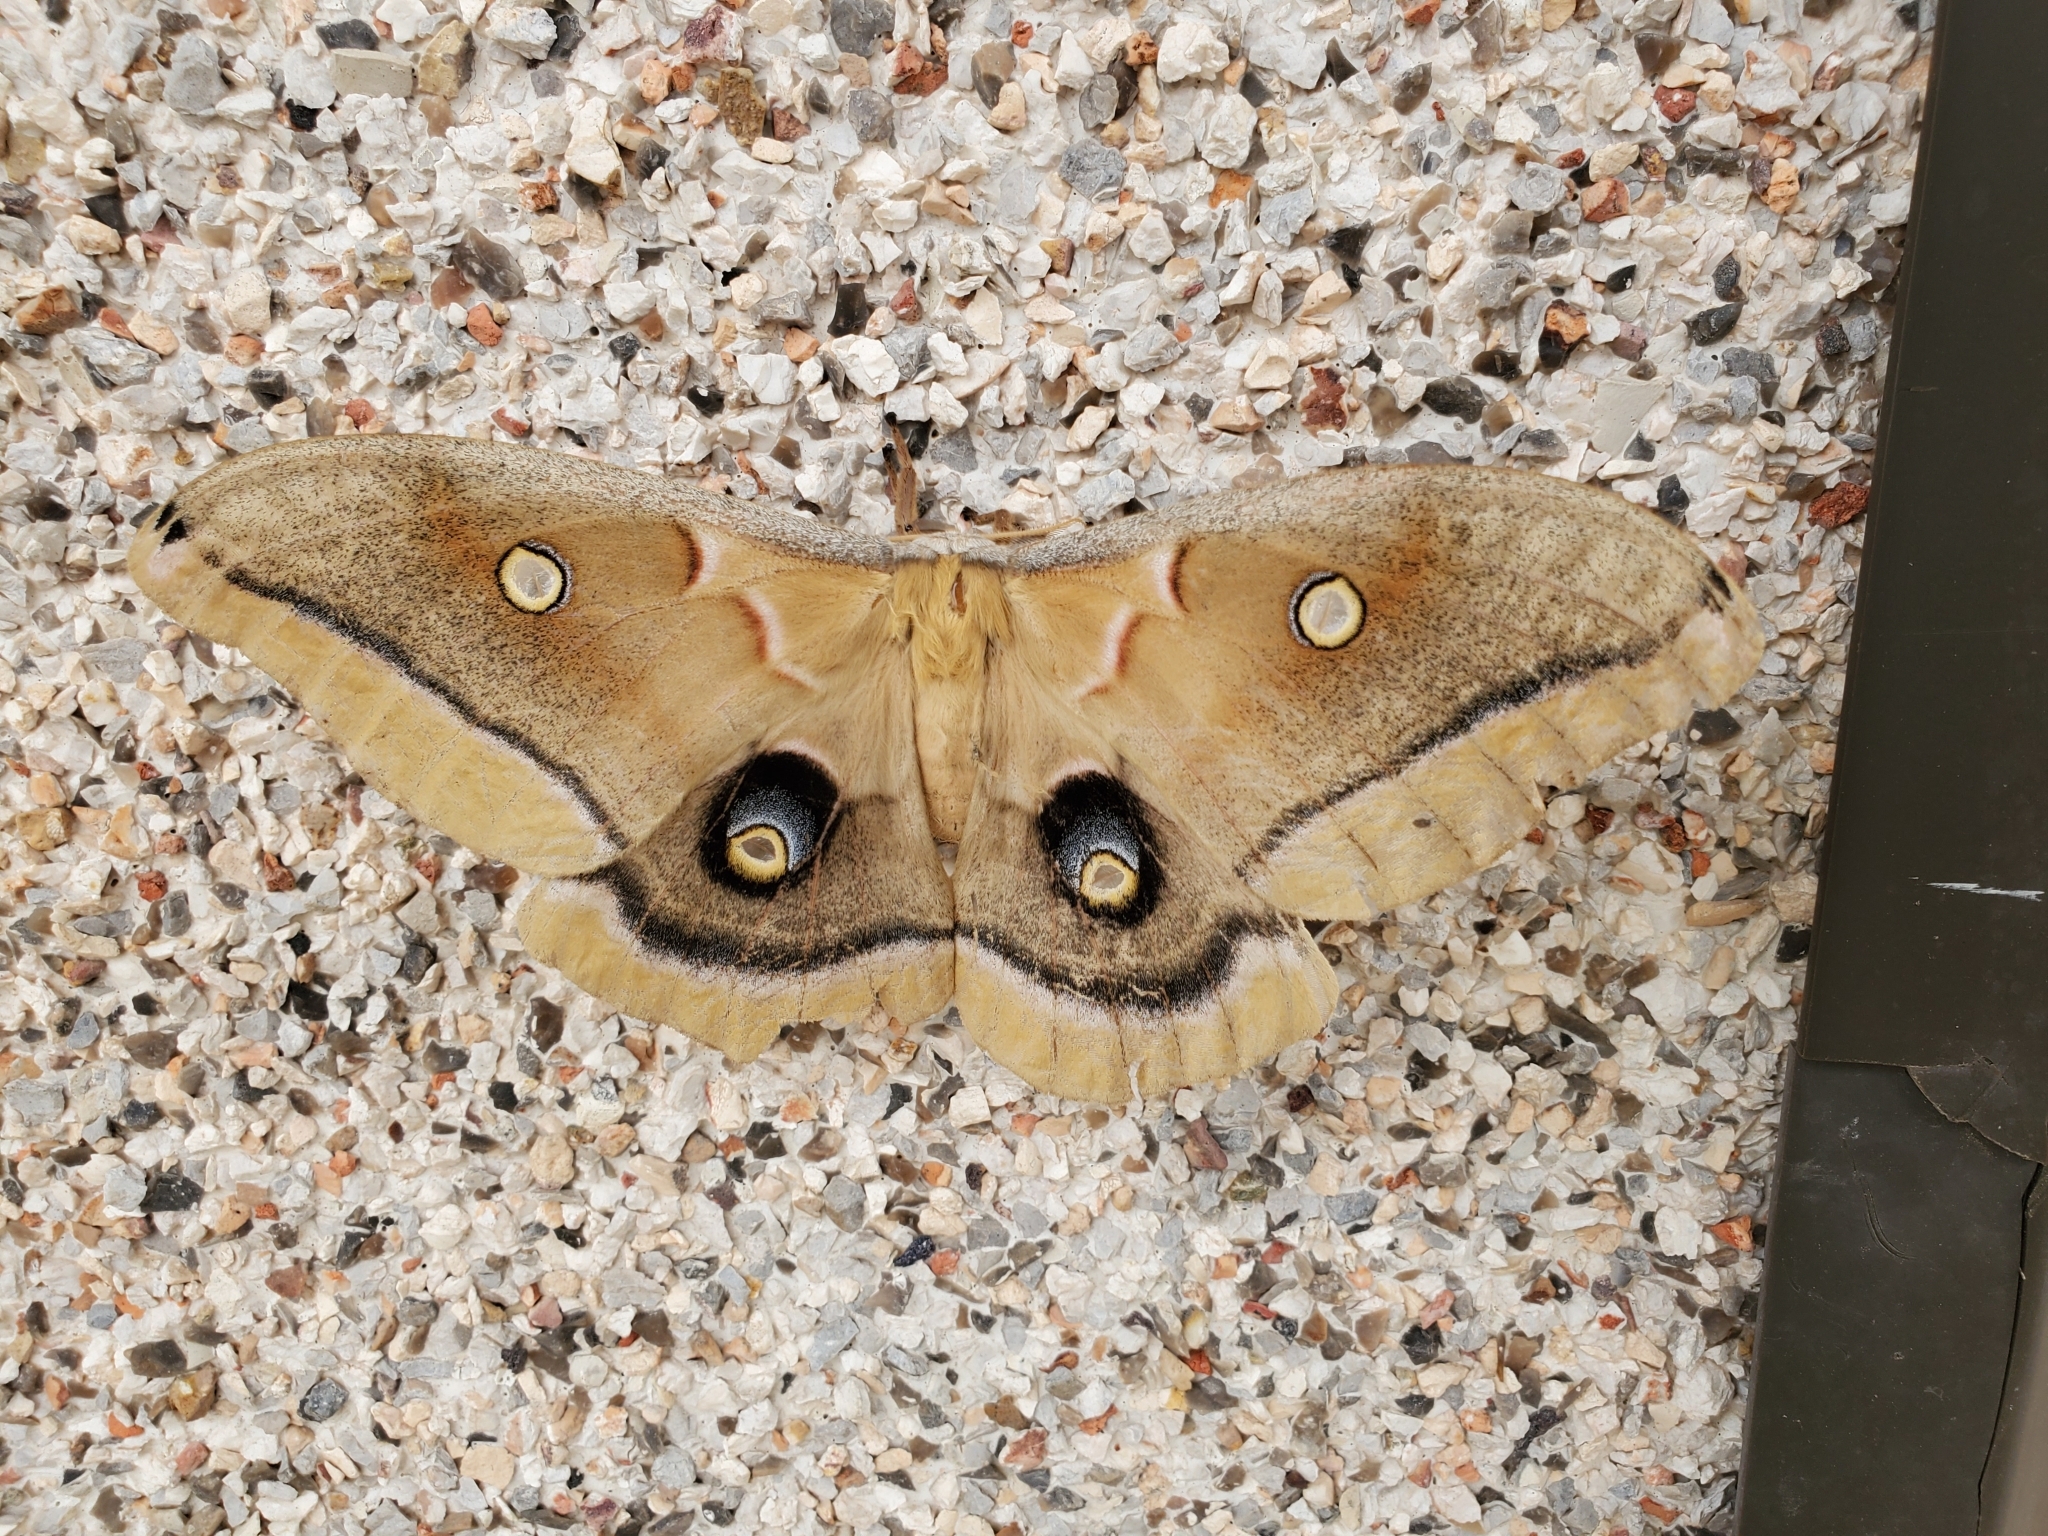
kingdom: Animalia
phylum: Arthropoda
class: Insecta
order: Lepidoptera
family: Saturniidae
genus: Antheraea
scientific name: Antheraea polyphemus
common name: Polyphemus moth
